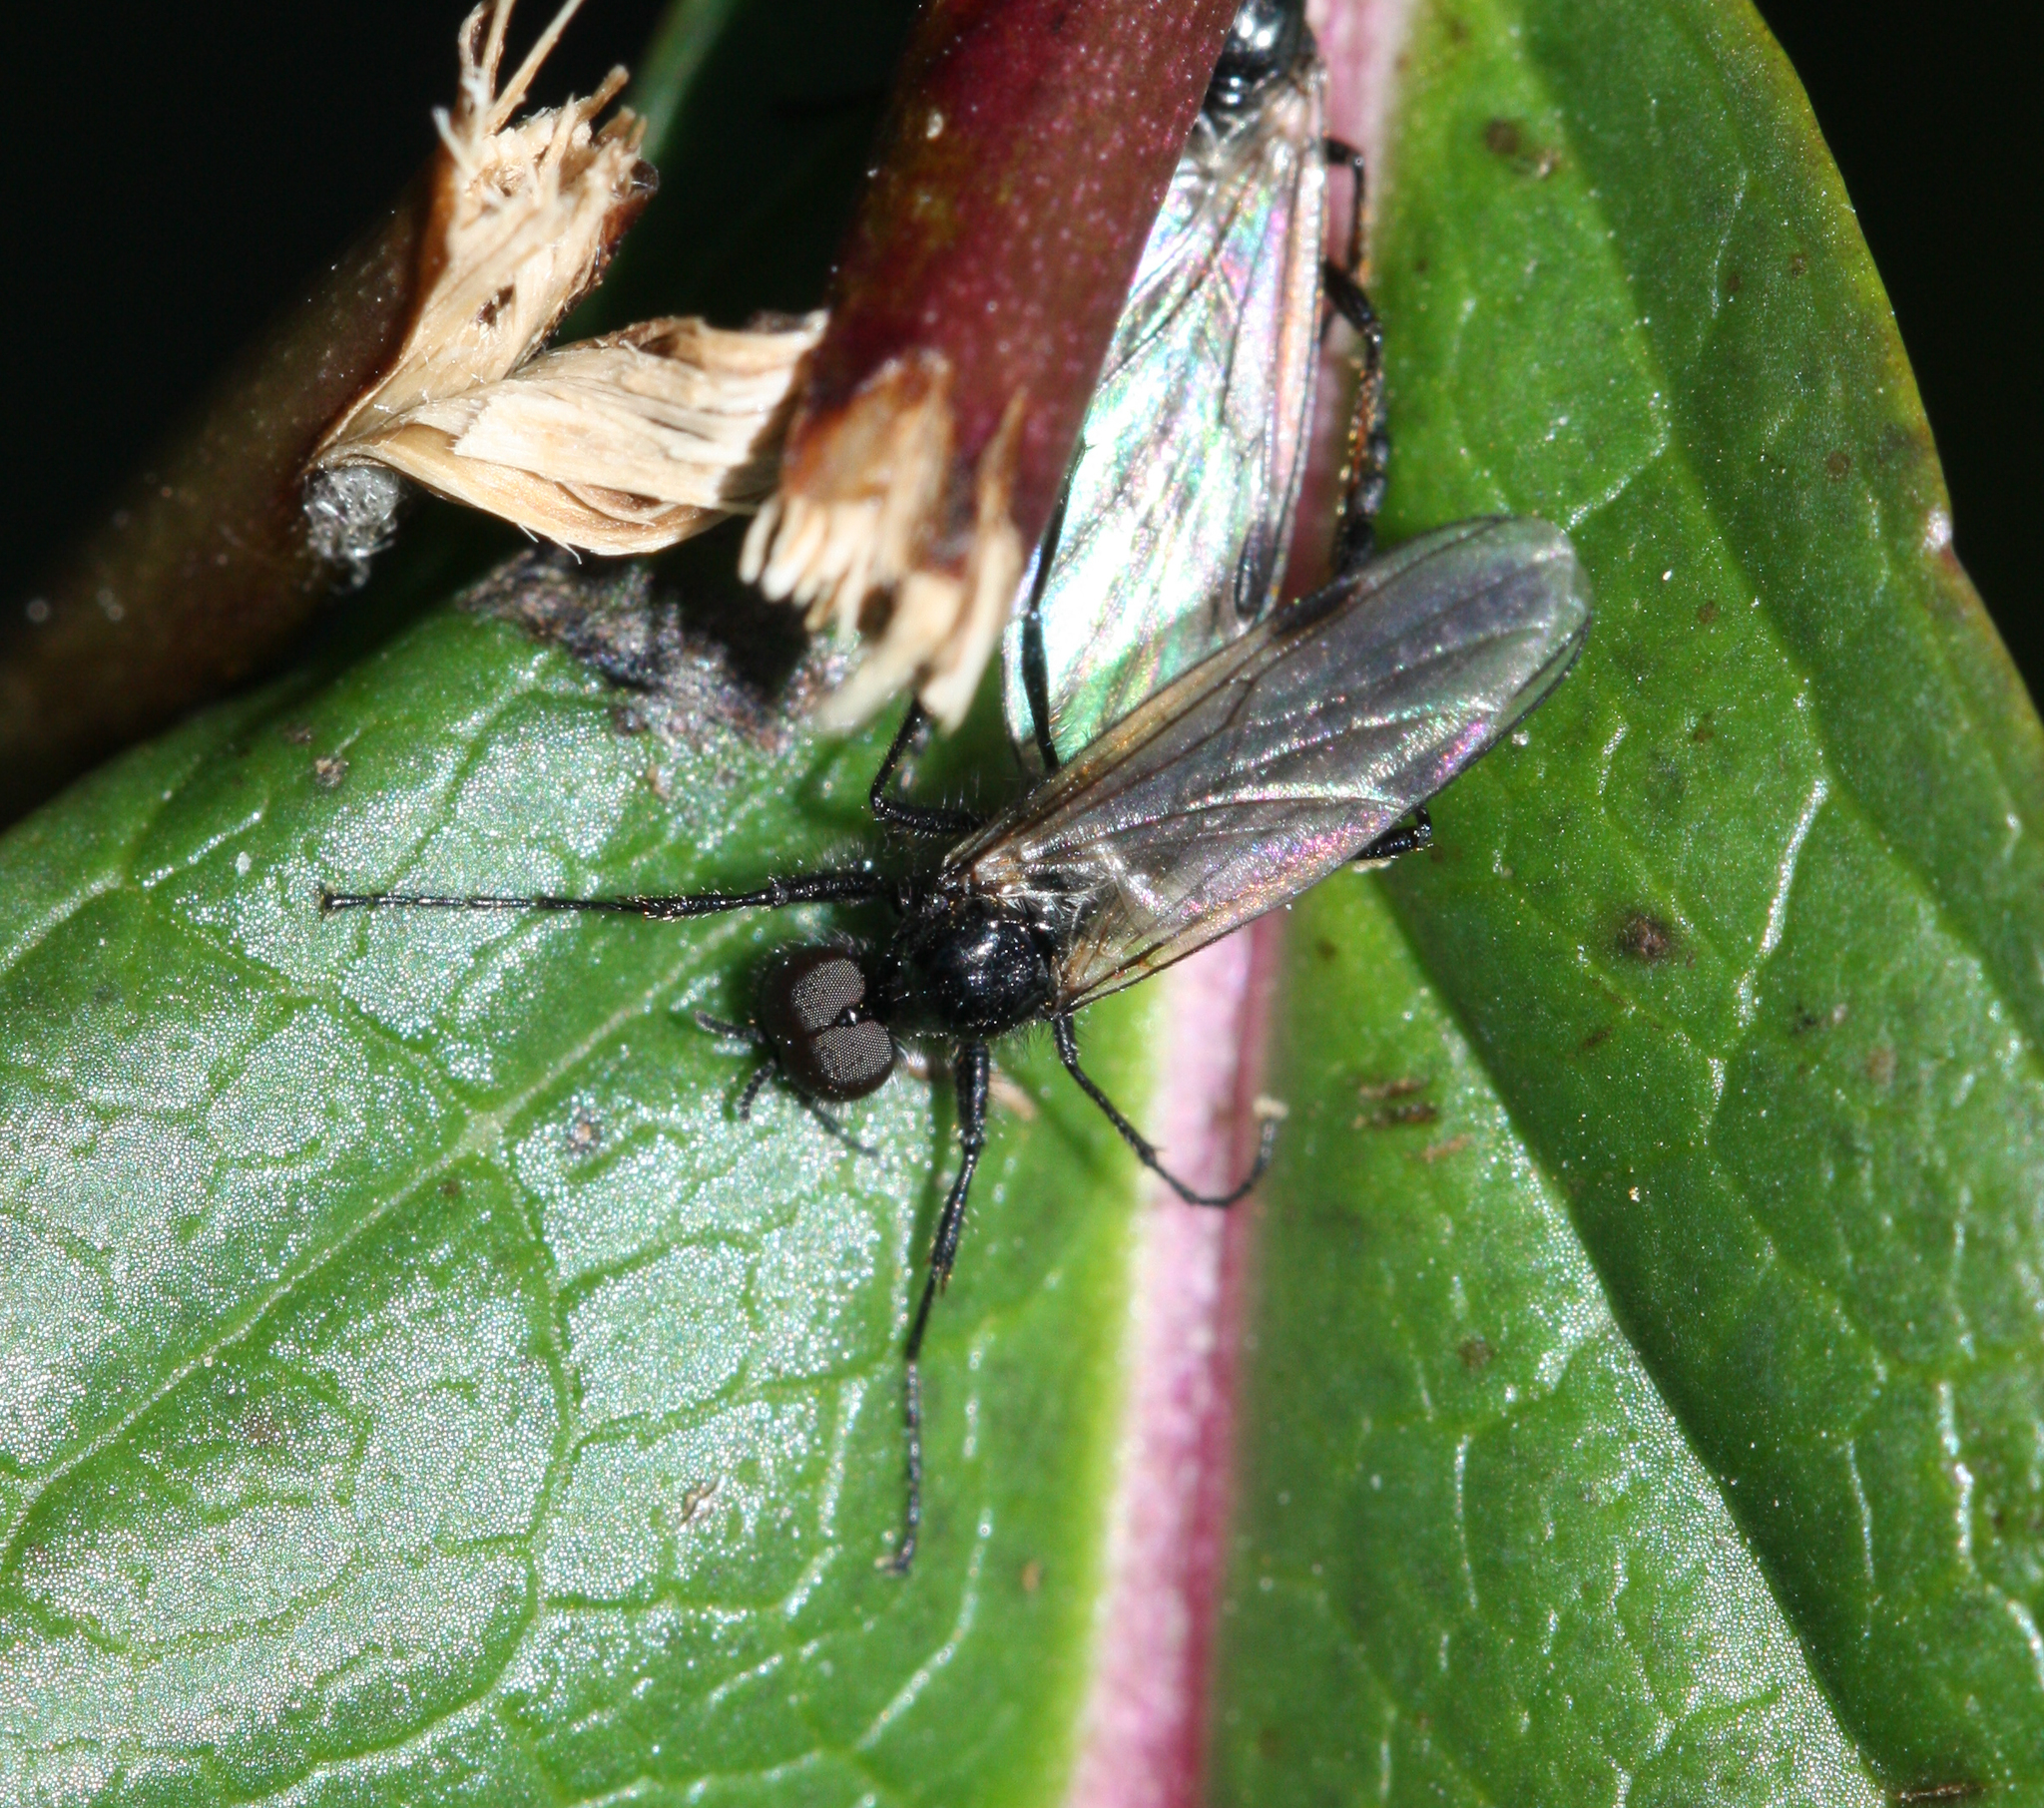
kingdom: Animalia
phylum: Arthropoda
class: Insecta
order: Diptera
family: Bibionidae
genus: Bibio
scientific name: Bibio slossonae
